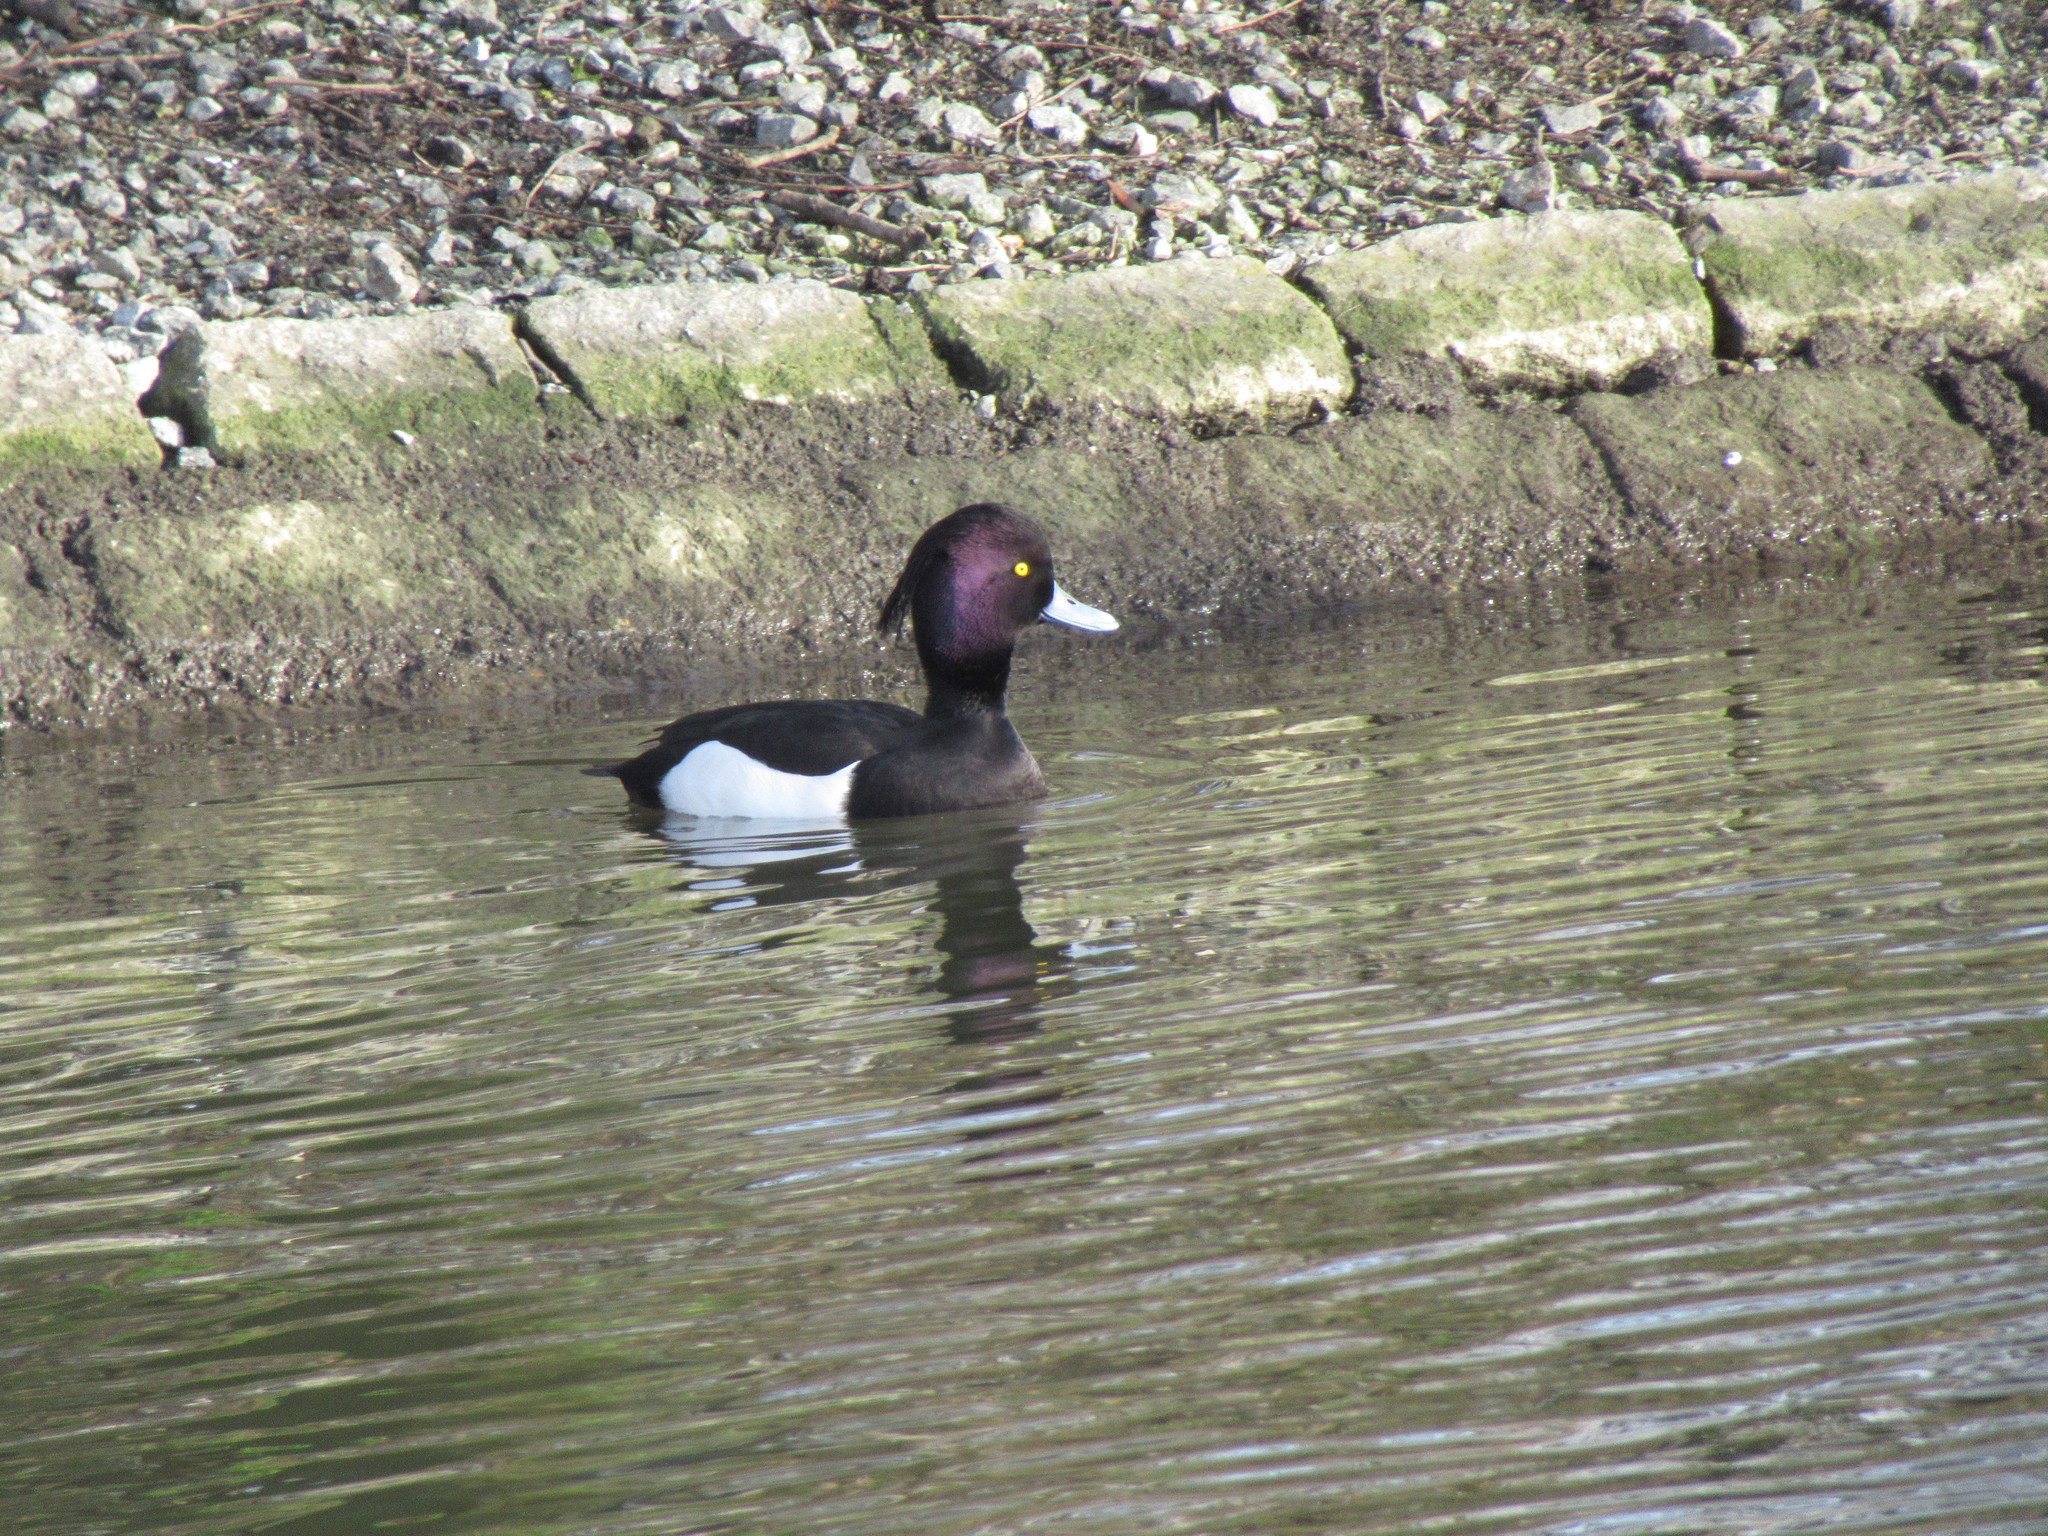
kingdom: Animalia
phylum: Chordata
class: Aves
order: Anseriformes
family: Anatidae
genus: Aythya
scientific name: Aythya fuligula
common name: Tufted duck
